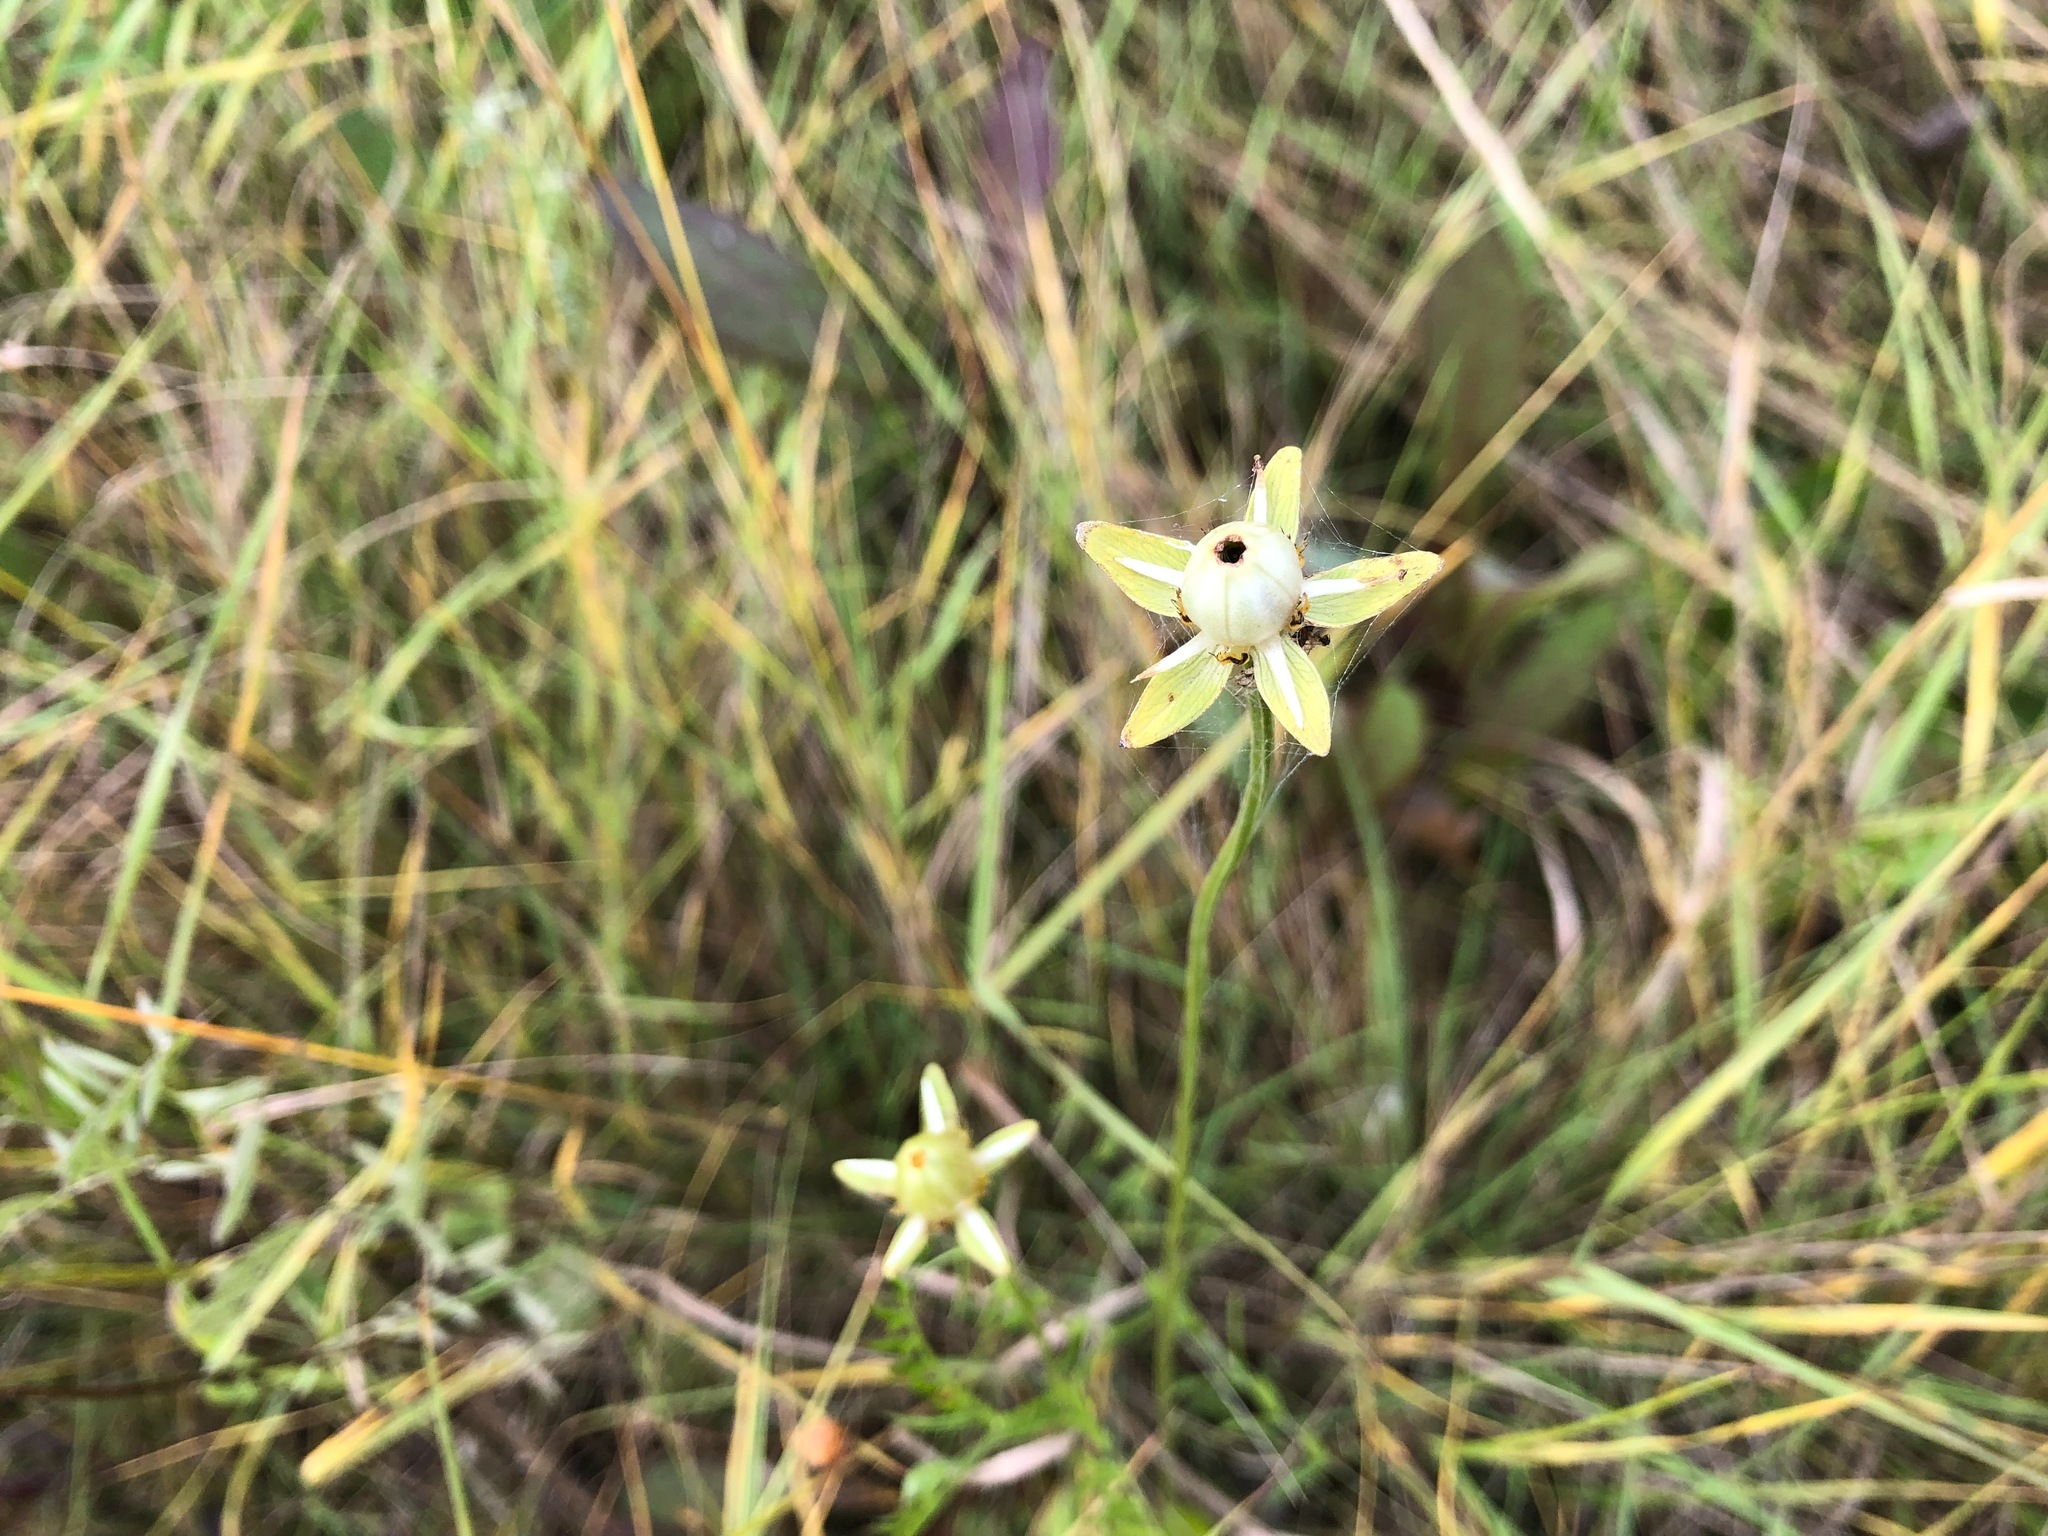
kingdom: Plantae
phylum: Tracheophyta
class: Magnoliopsida
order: Celastrales
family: Parnassiaceae
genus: Parnassia
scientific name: Parnassia palustris
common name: Grass-of-parnassus
